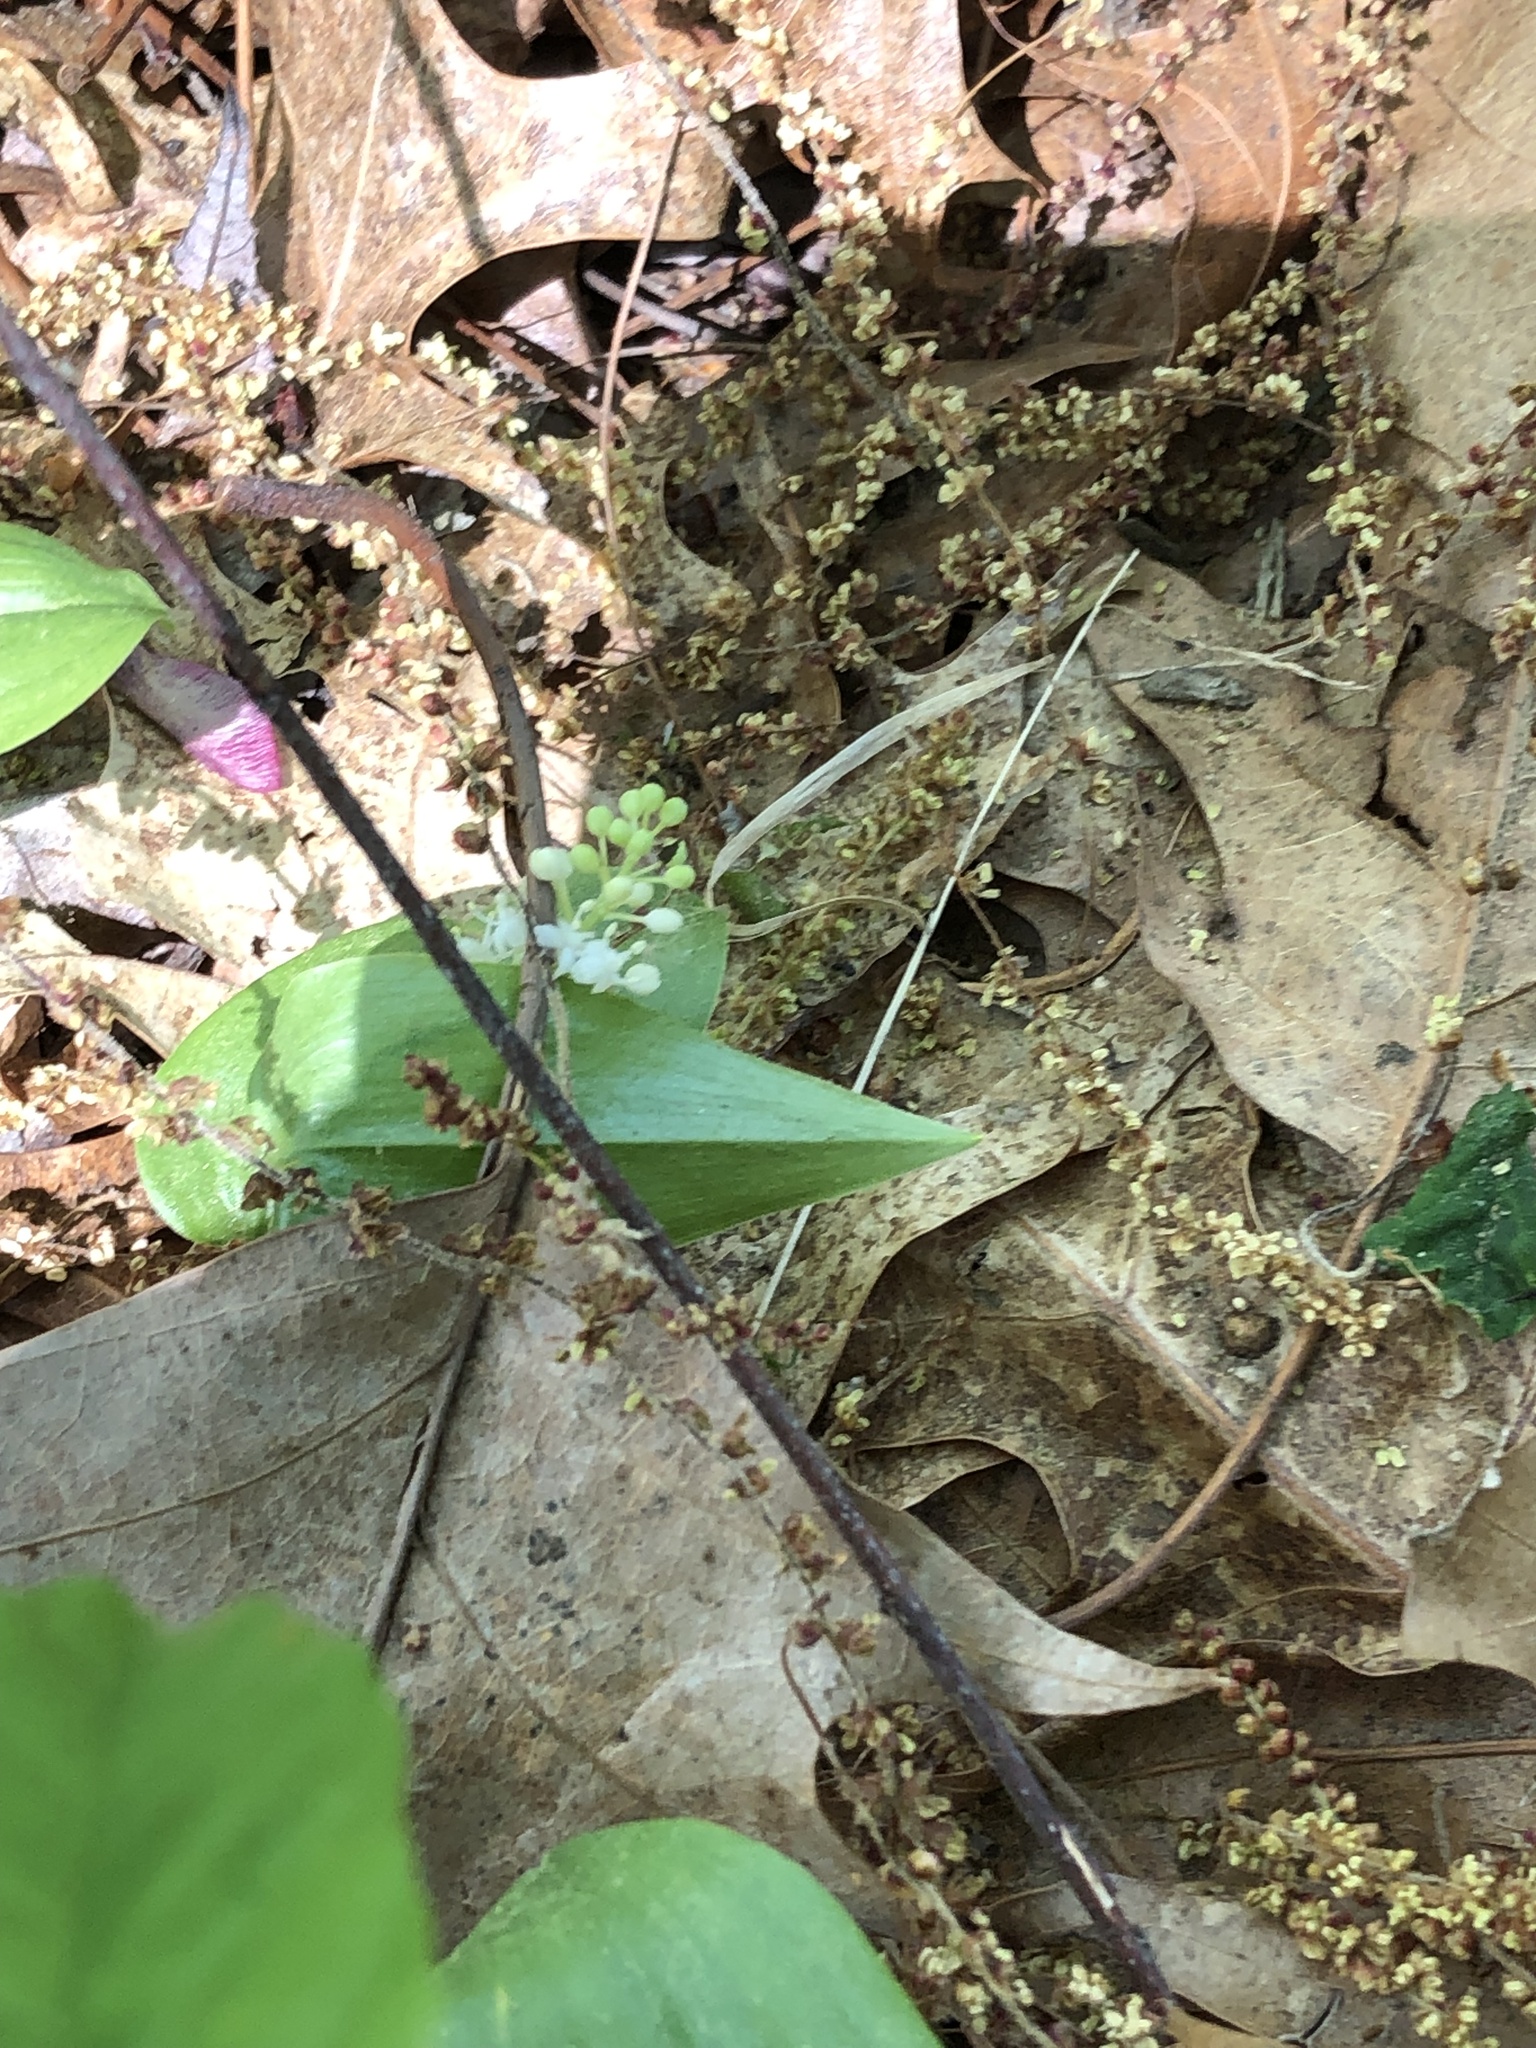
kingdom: Plantae
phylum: Tracheophyta
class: Liliopsida
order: Asparagales
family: Asparagaceae
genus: Maianthemum
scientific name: Maianthemum canadense
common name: False lily-of-the-valley
